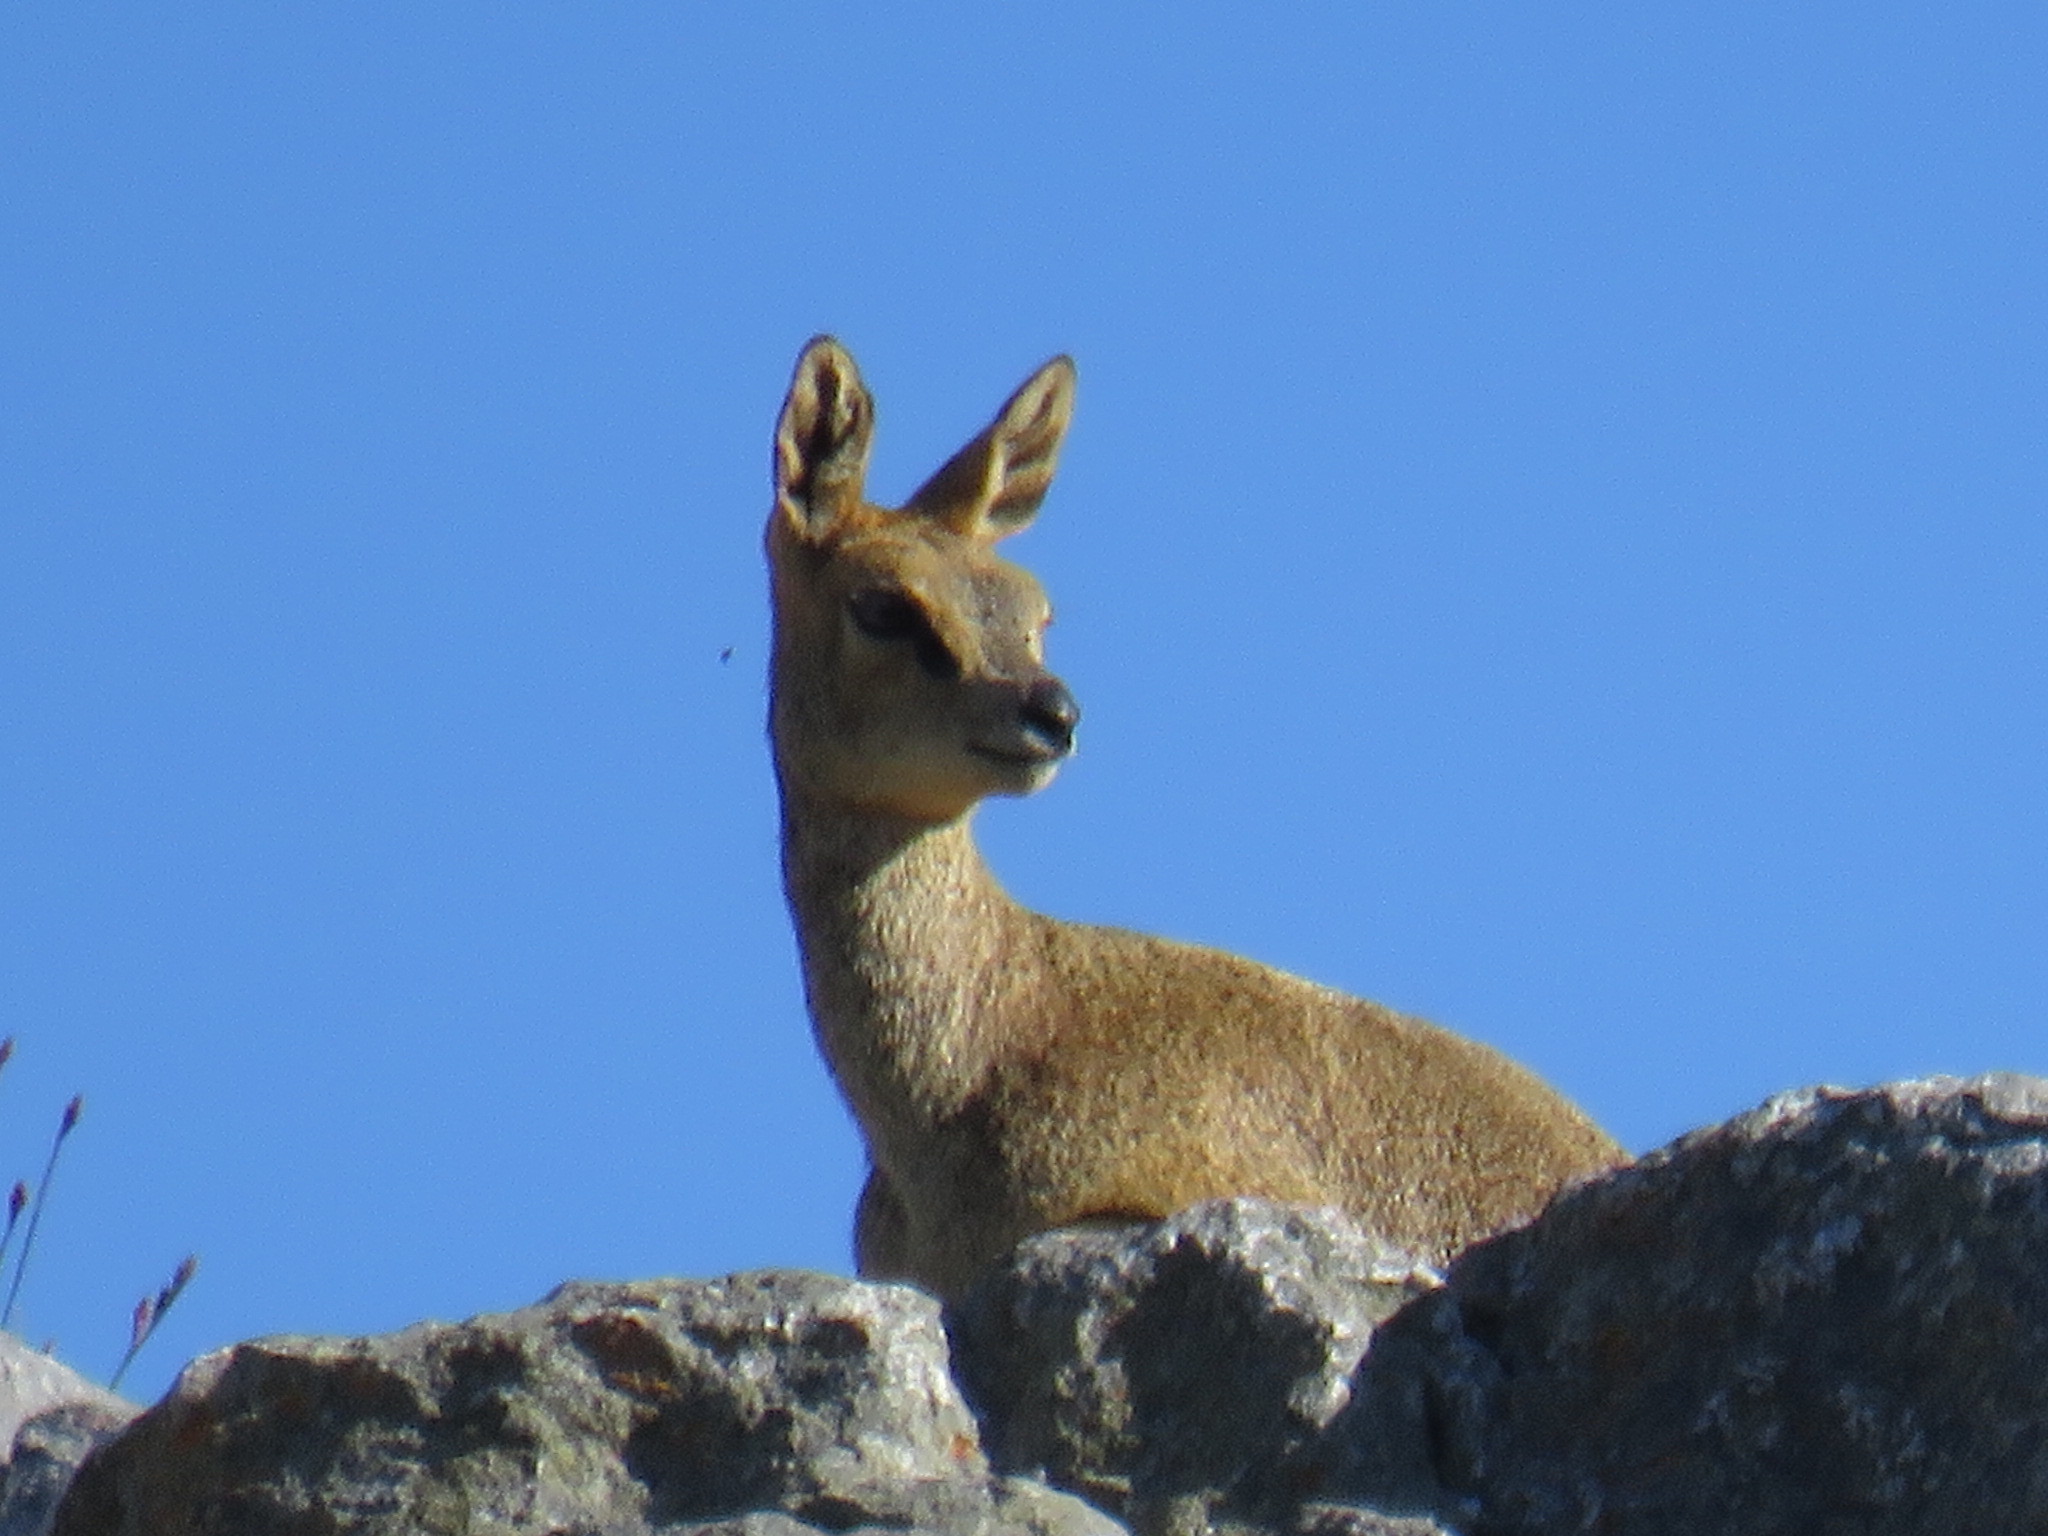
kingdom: Animalia
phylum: Chordata
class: Mammalia
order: Artiodactyla
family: Bovidae
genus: Oreotragus
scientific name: Oreotragus oreotragus
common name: Klipspringer
